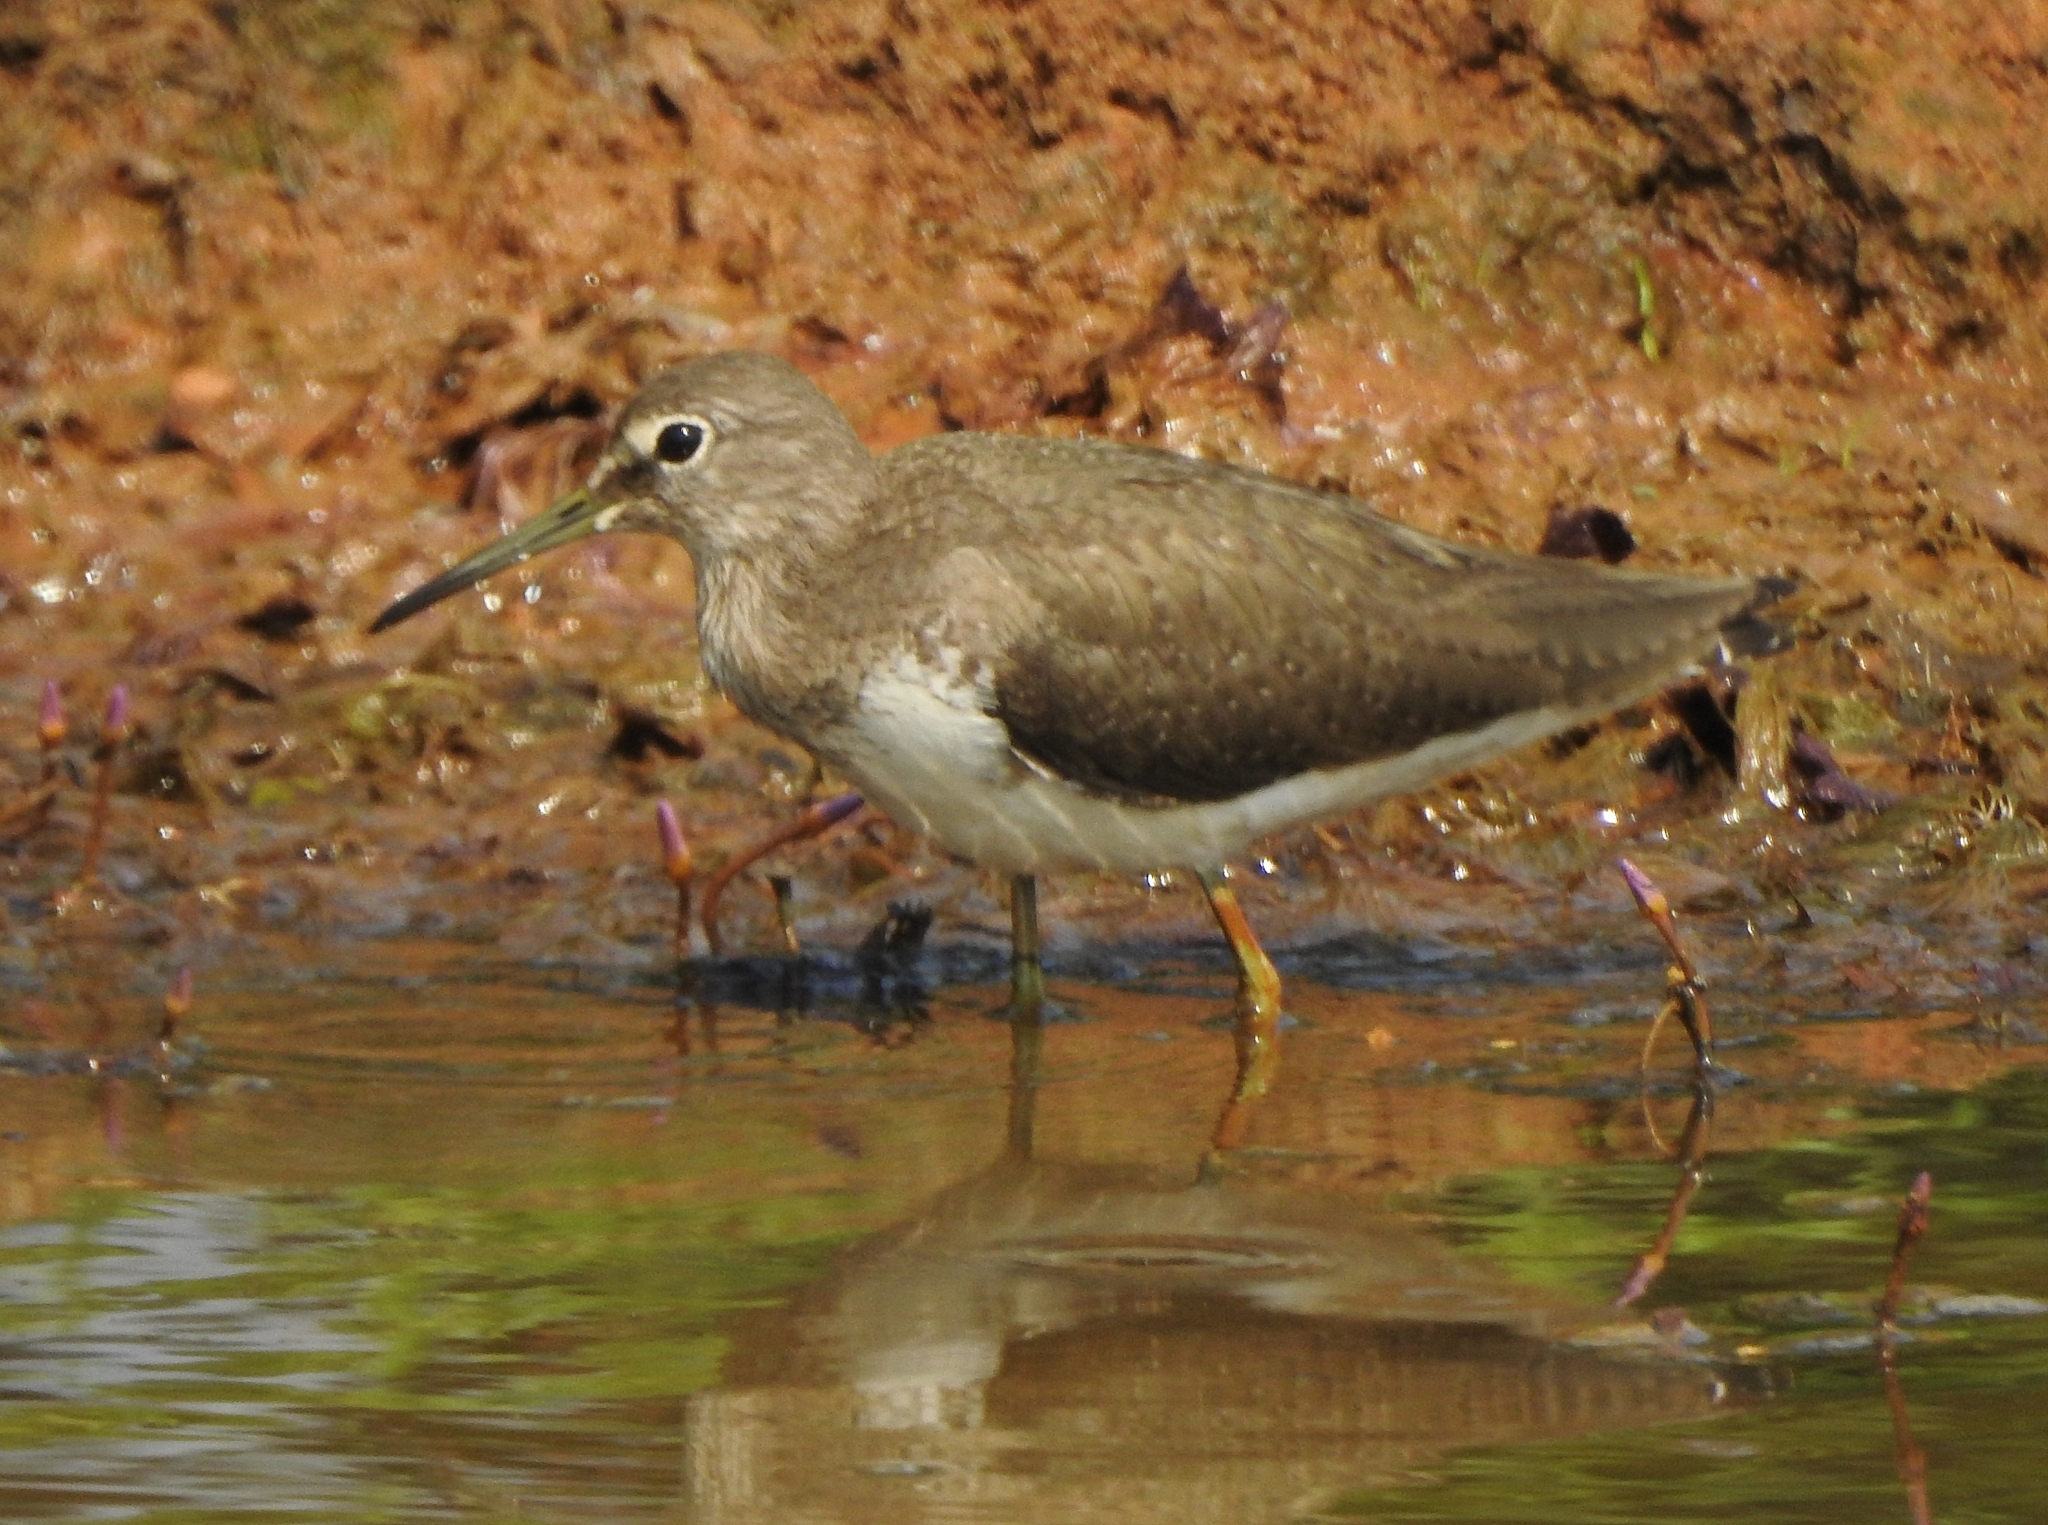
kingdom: Animalia
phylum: Chordata
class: Aves
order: Charadriiformes
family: Scolopacidae
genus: Tringa
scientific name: Tringa ochropus
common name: Green sandpiper
